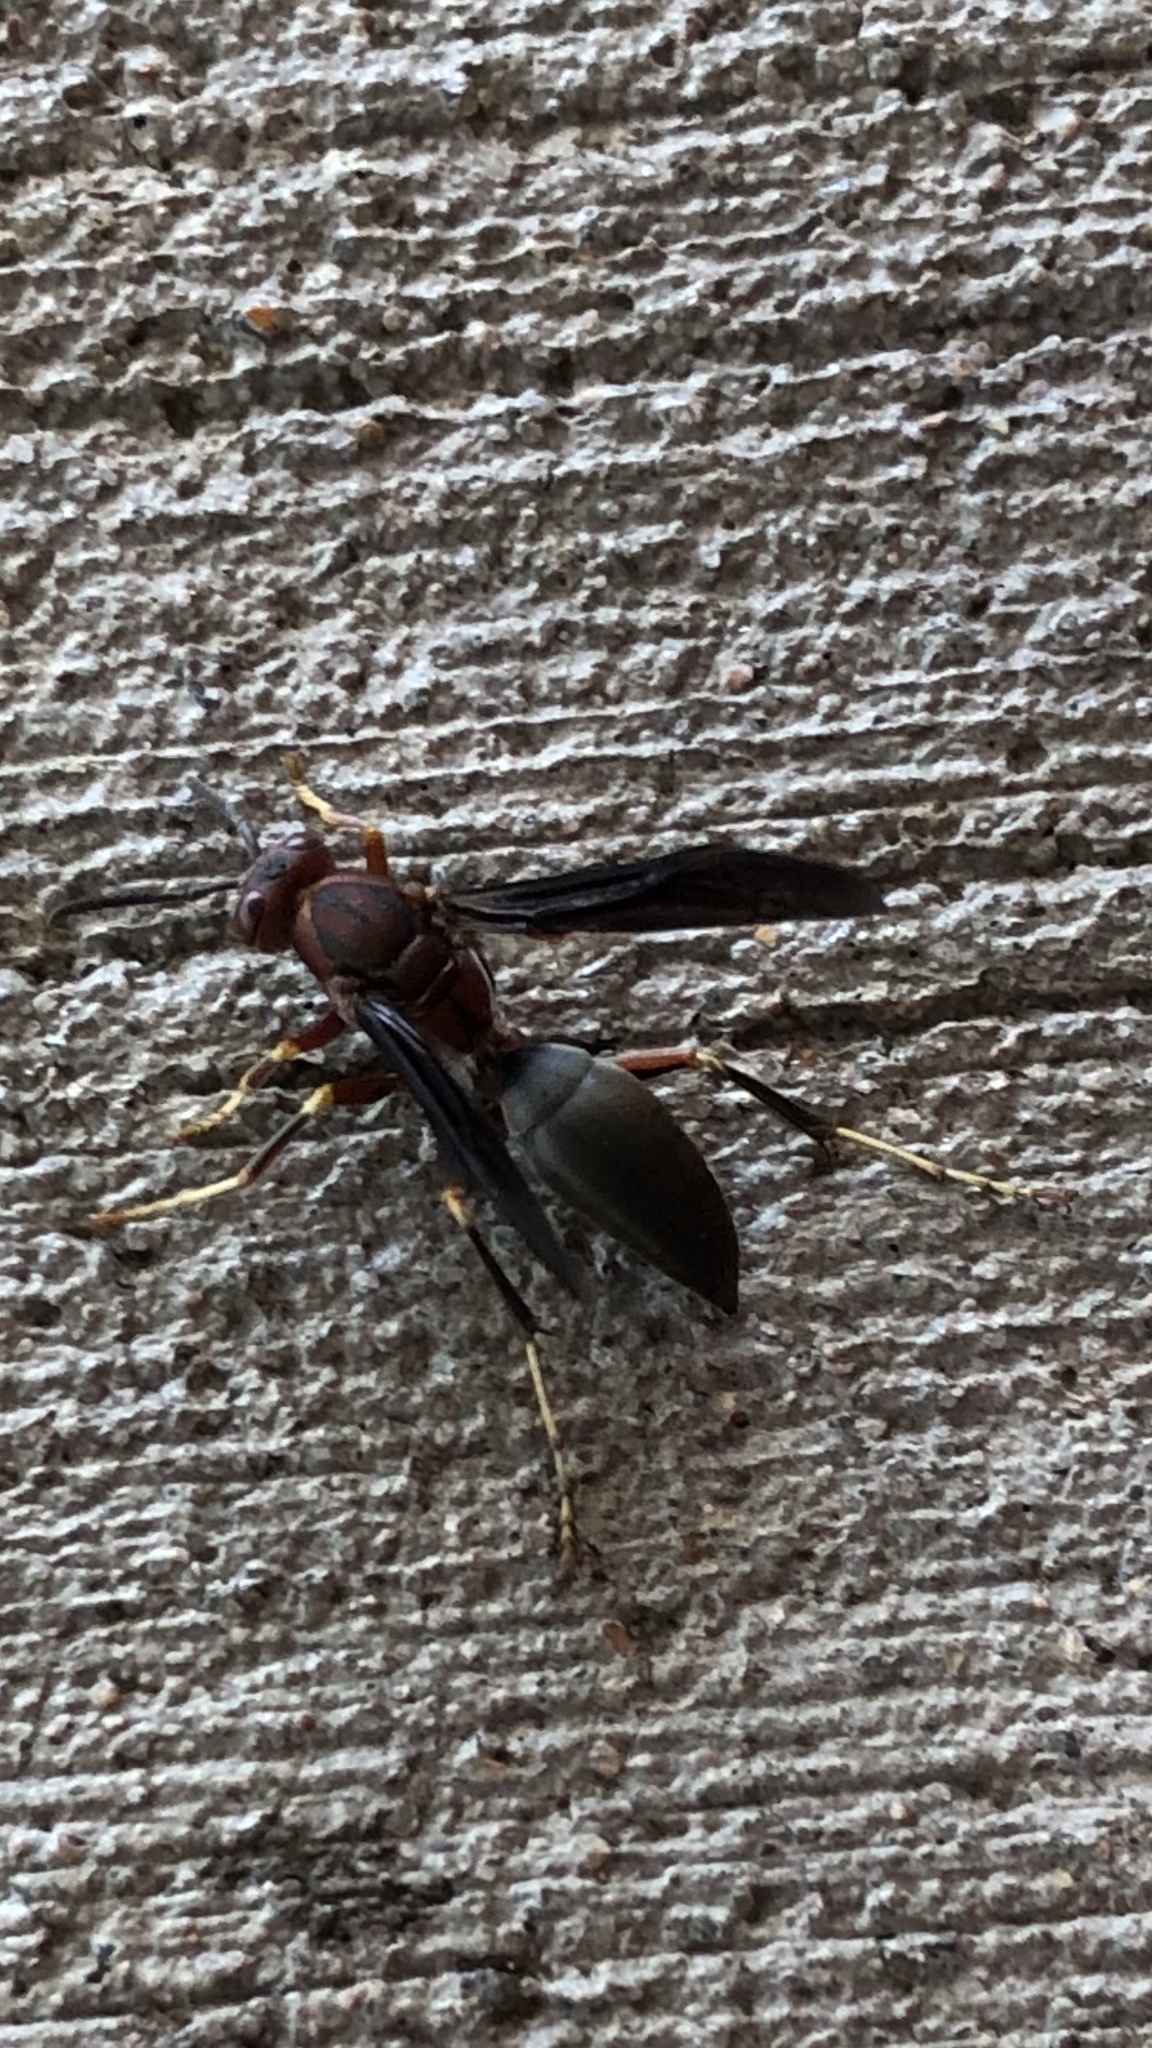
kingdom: Animalia
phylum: Arthropoda
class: Insecta
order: Hymenoptera
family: Eumenidae
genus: Polistes
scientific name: Polistes metricus
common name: Metric paper wasp
